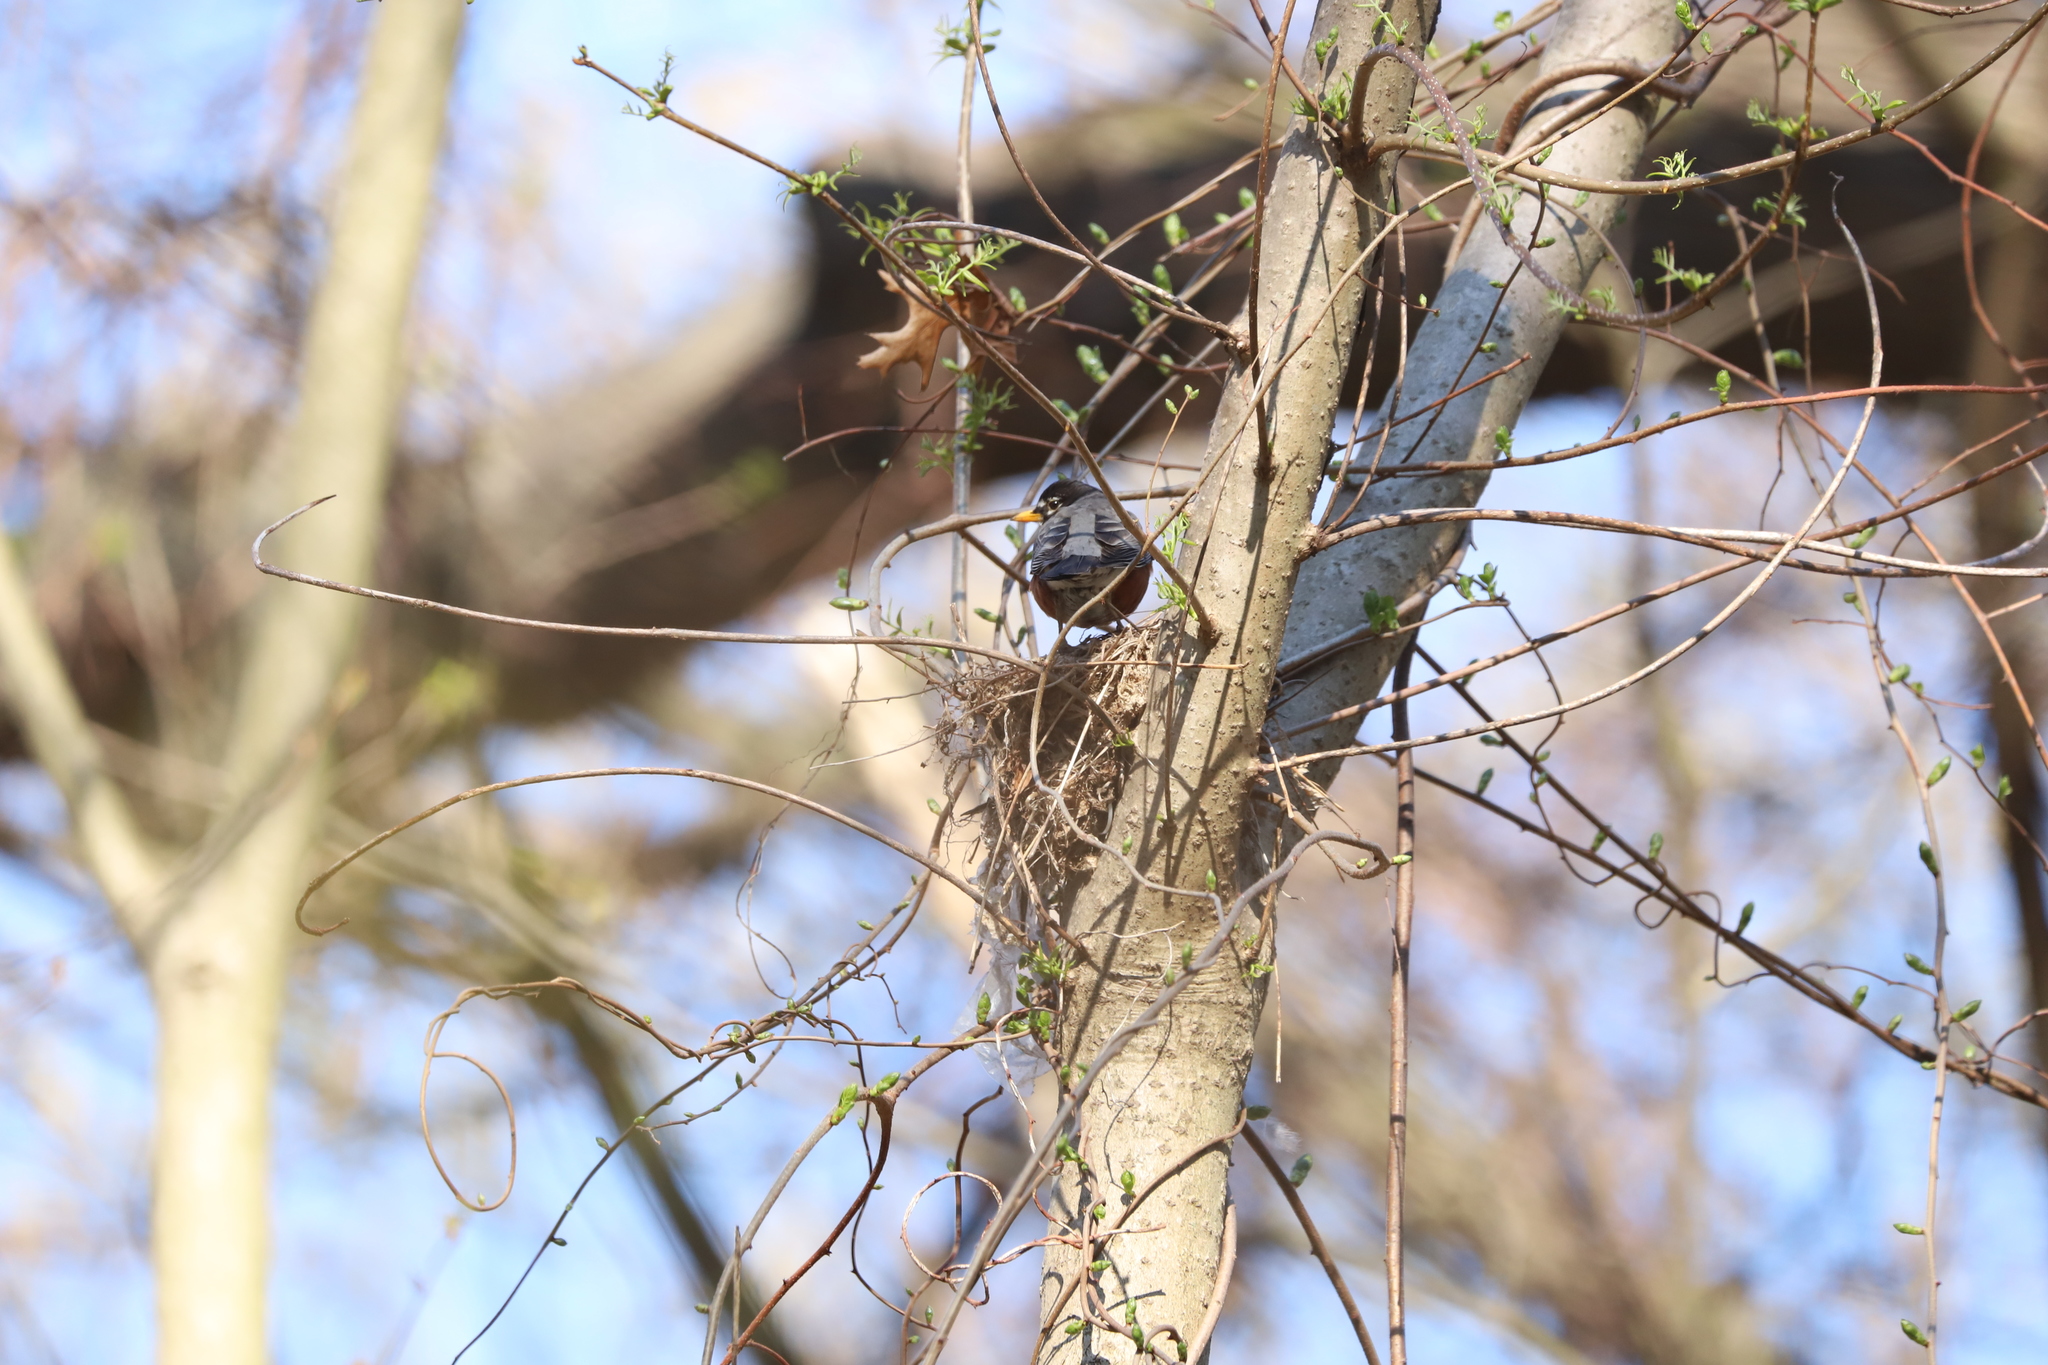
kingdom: Animalia
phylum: Chordata
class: Aves
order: Passeriformes
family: Turdidae
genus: Turdus
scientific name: Turdus migratorius
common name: American robin
